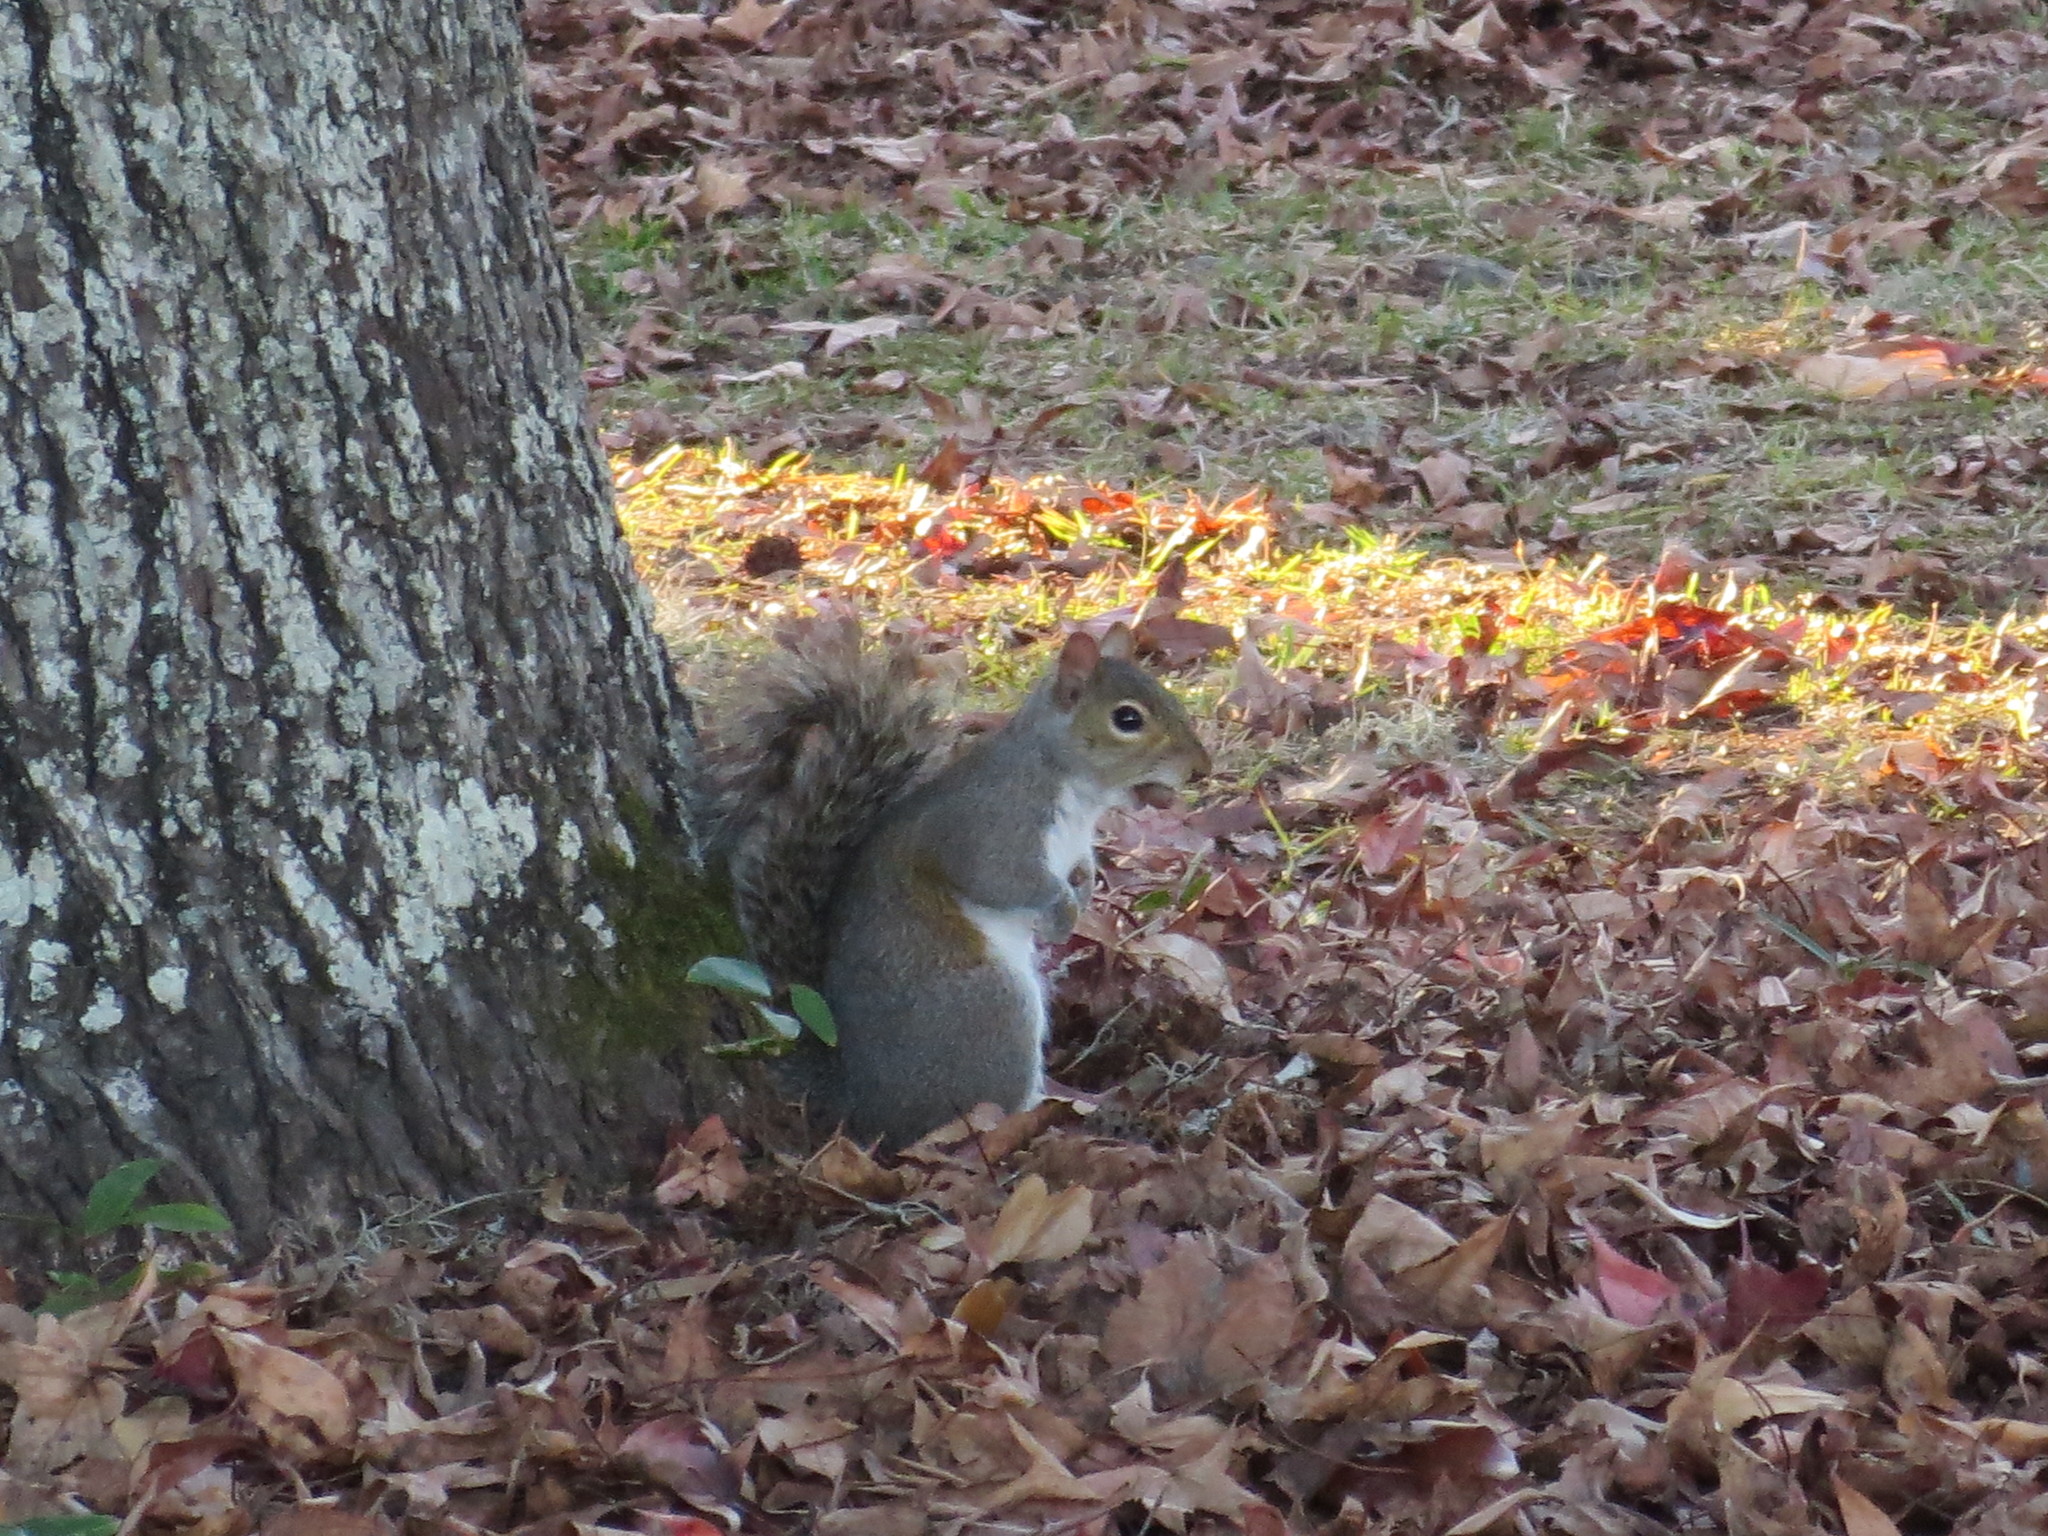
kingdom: Animalia
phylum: Chordata
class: Mammalia
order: Rodentia
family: Sciuridae
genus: Sciurus
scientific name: Sciurus carolinensis
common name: Eastern gray squirrel
